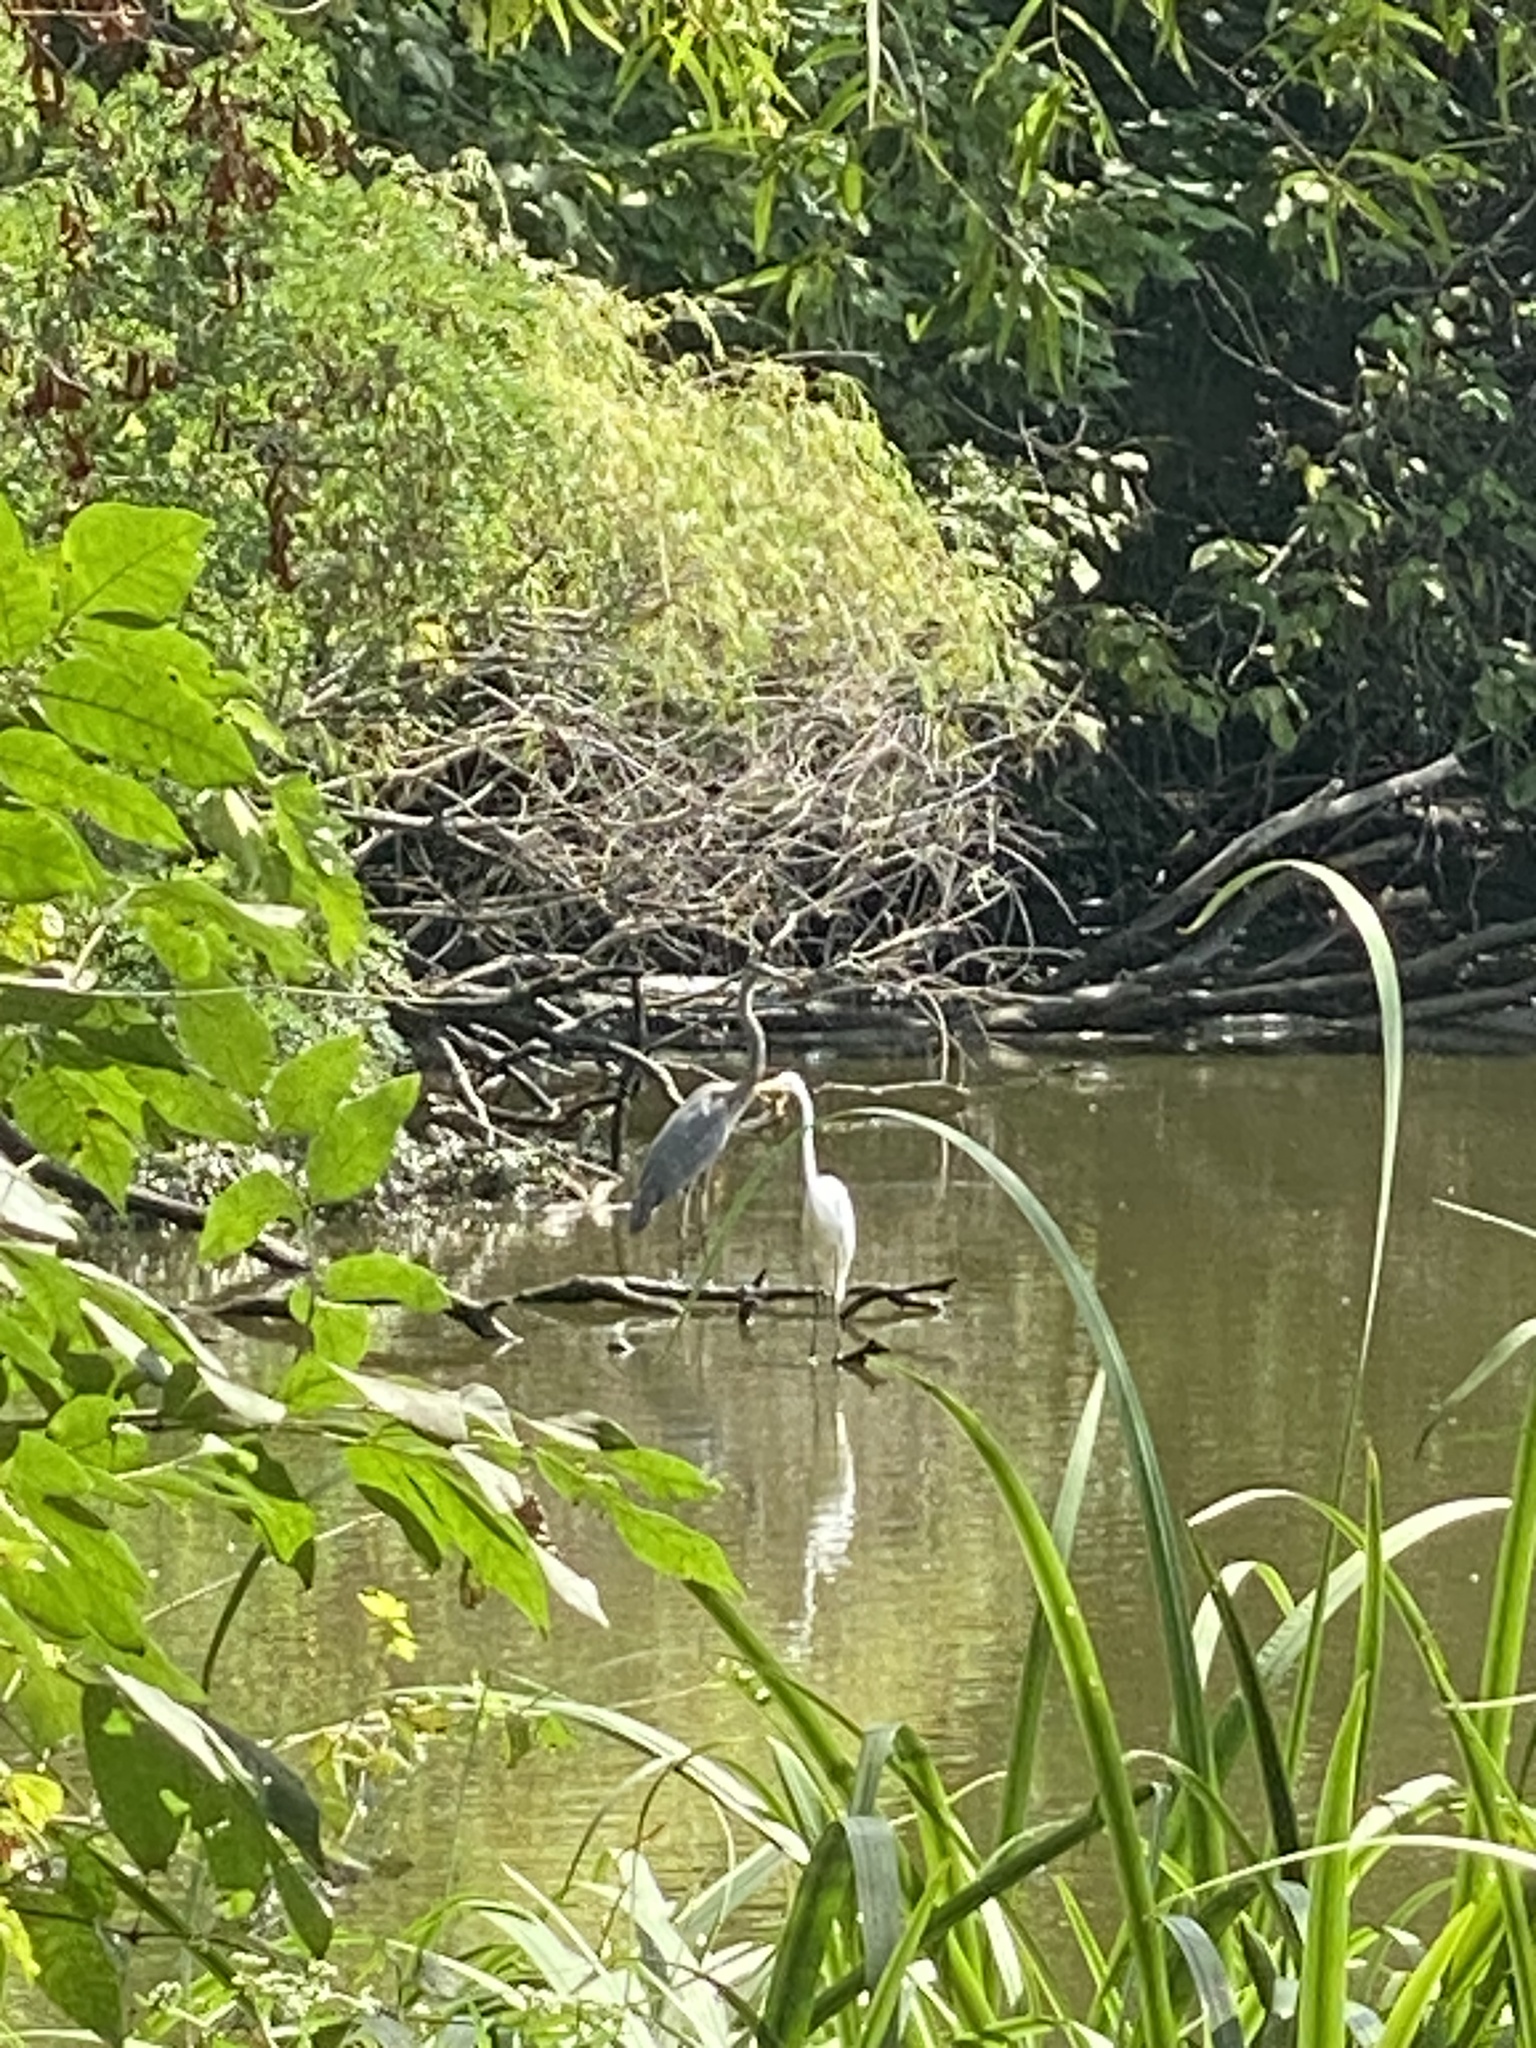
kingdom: Animalia
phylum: Chordata
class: Aves
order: Pelecaniformes
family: Ardeidae
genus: Ardea
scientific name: Ardea alba
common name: Great egret
